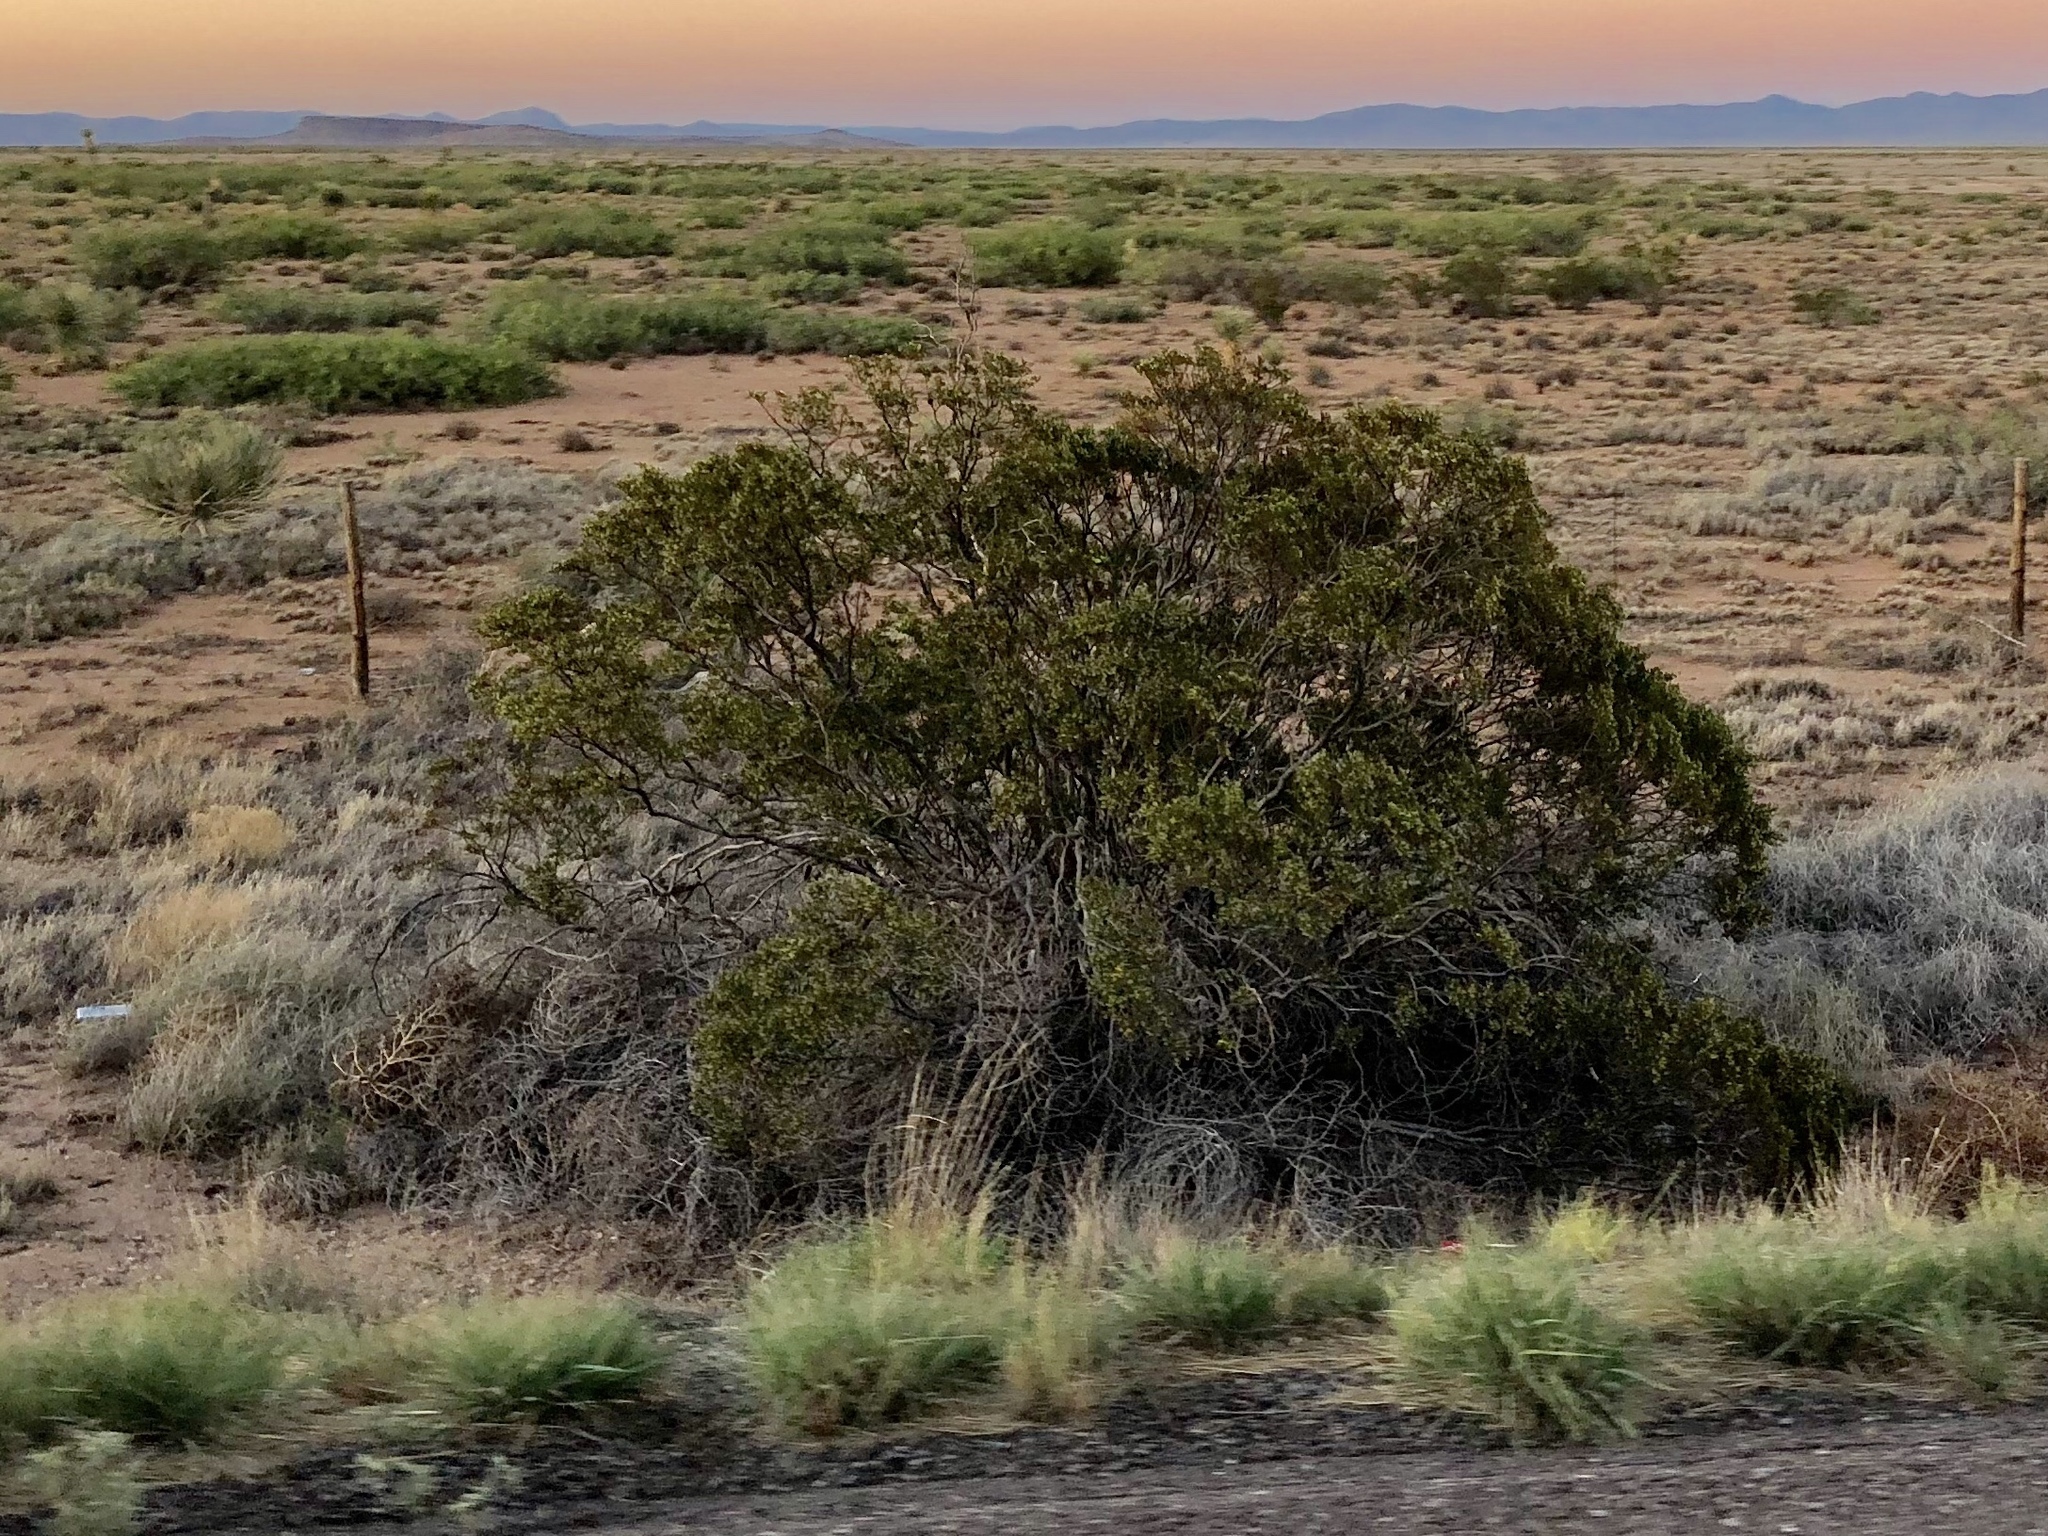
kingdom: Plantae
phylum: Tracheophyta
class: Magnoliopsida
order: Zygophyllales
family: Zygophyllaceae
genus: Larrea
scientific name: Larrea tridentata
